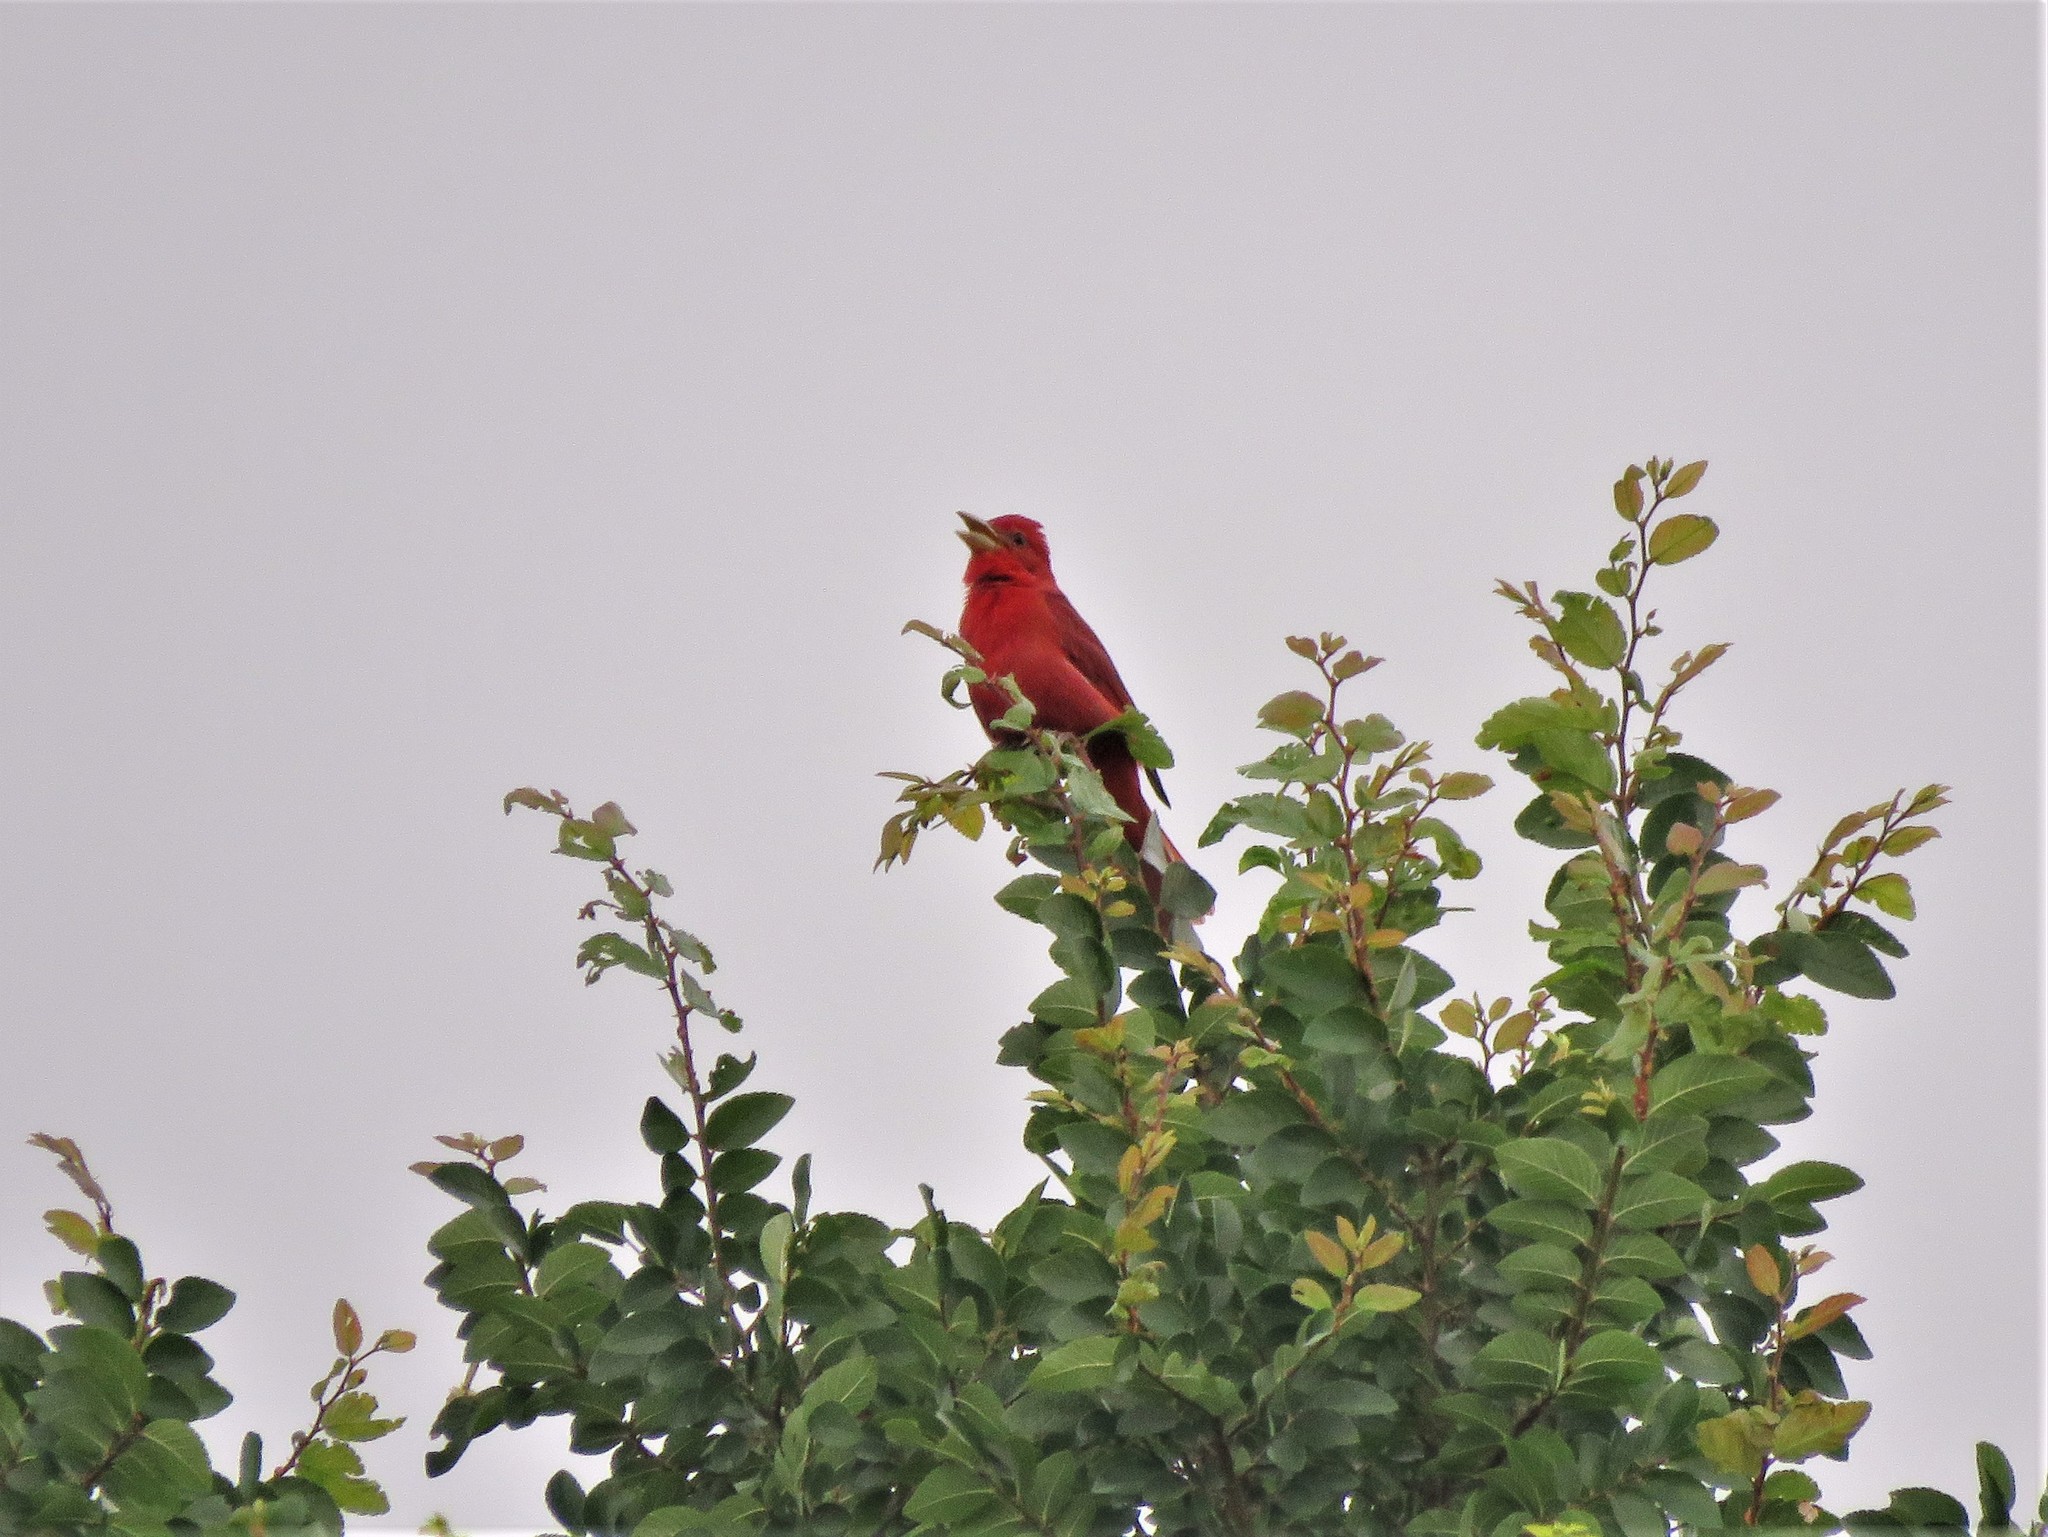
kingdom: Animalia
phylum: Chordata
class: Aves
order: Passeriformes
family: Cardinalidae
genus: Piranga
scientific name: Piranga rubra
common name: Summer tanager
